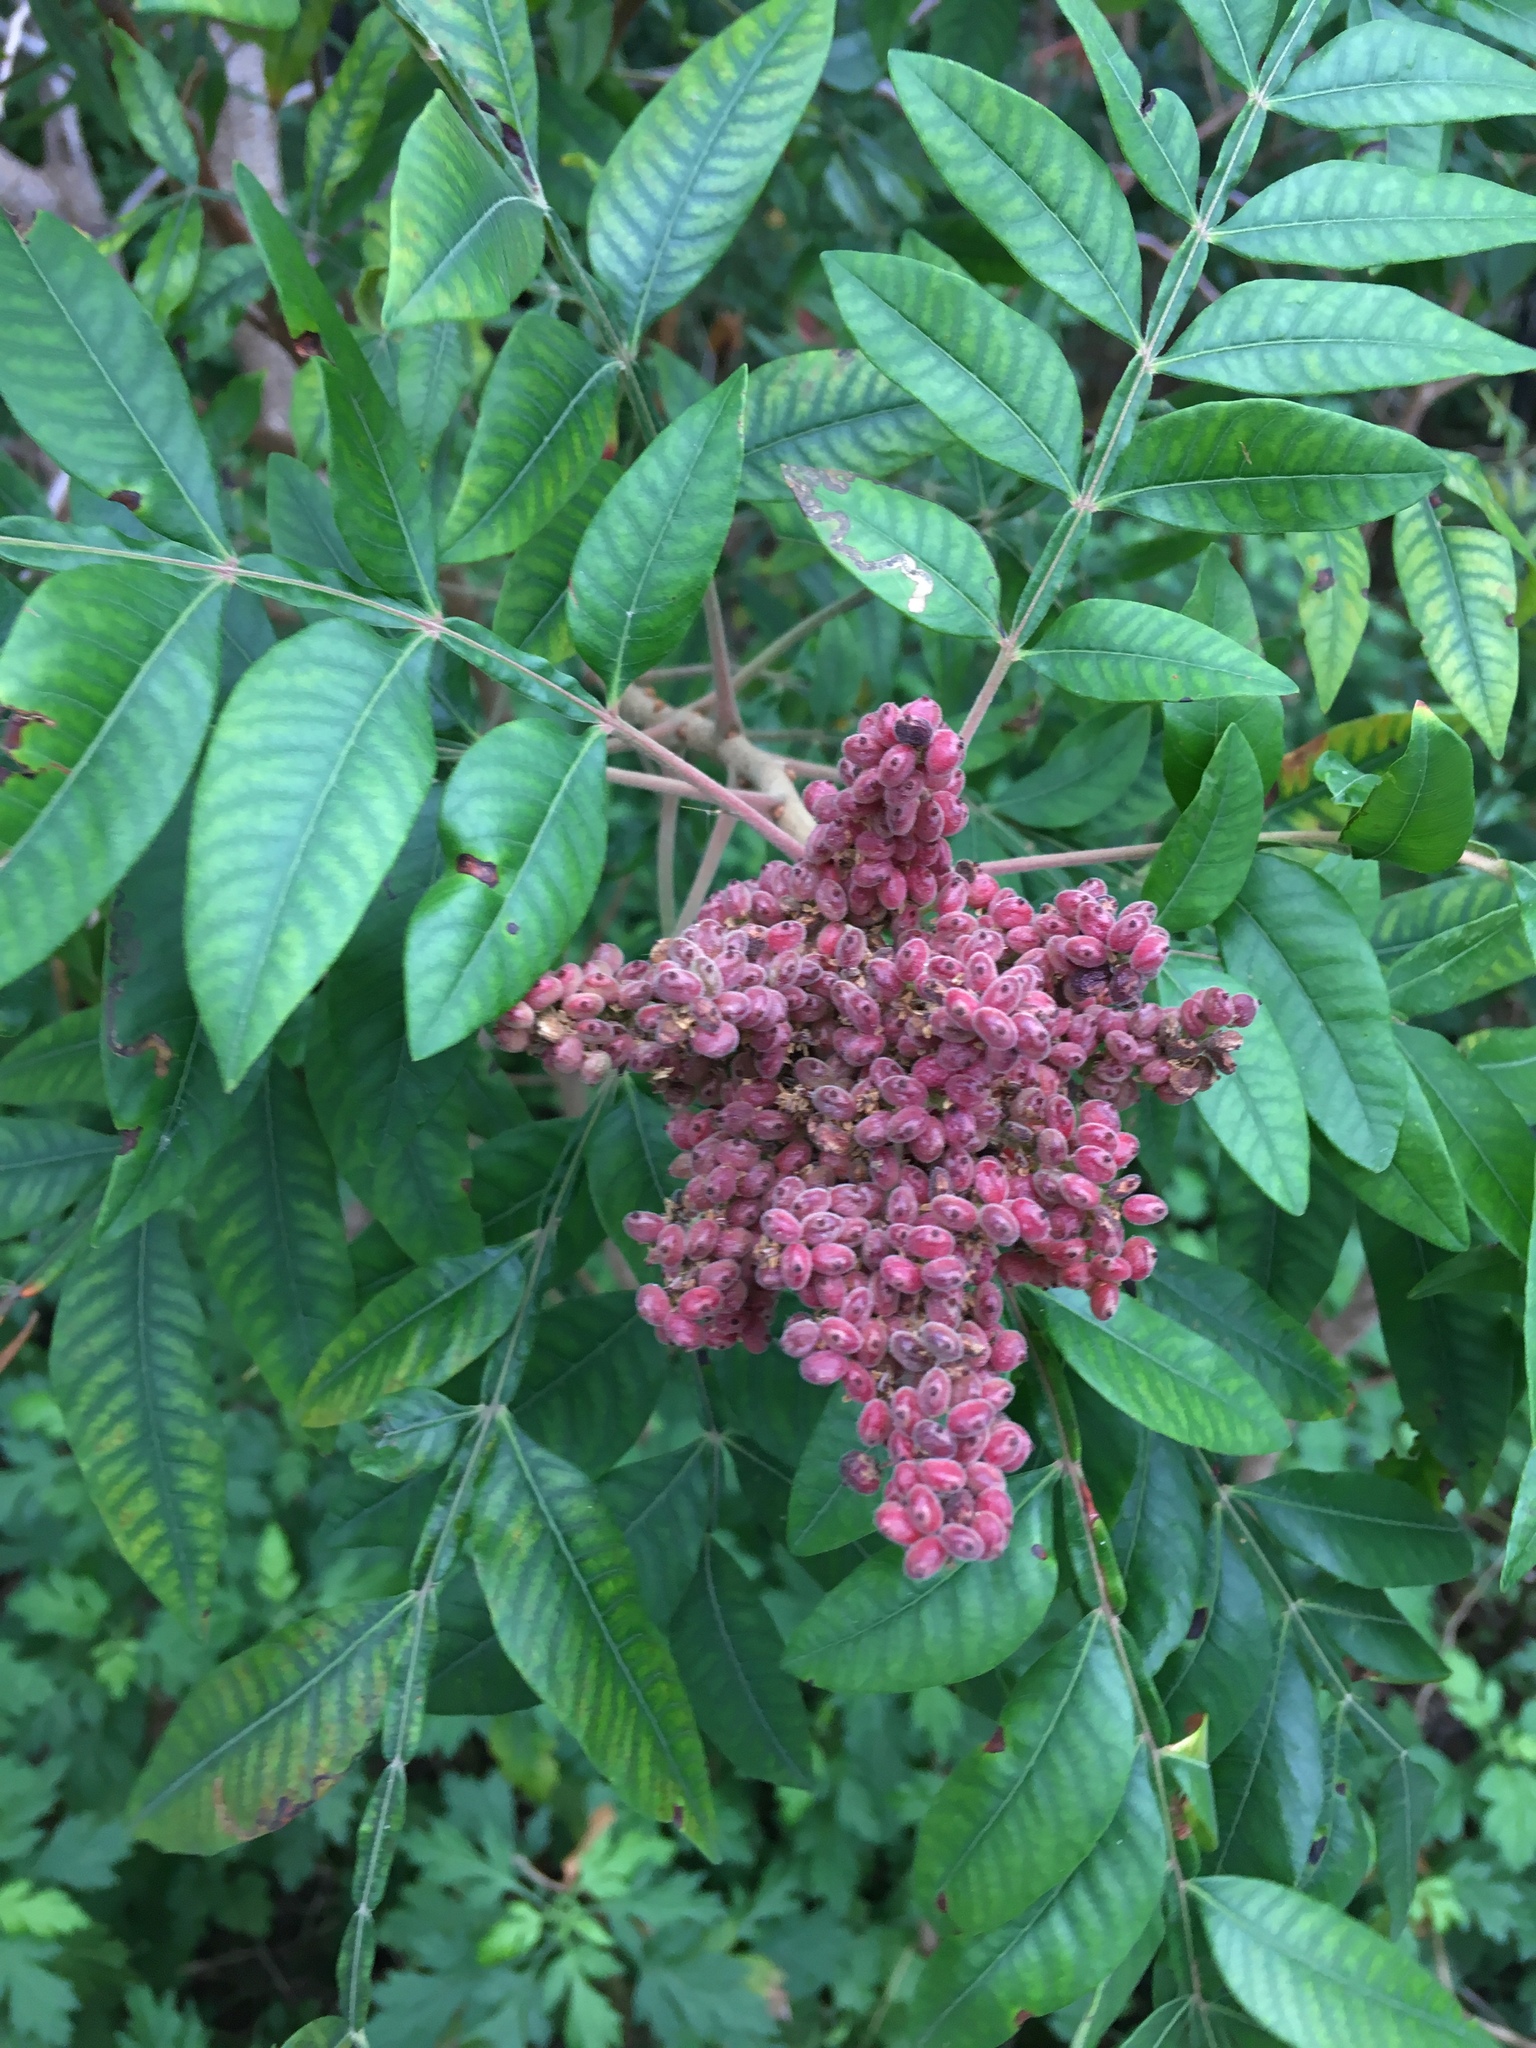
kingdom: Plantae
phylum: Tracheophyta
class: Magnoliopsida
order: Sapindales
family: Anacardiaceae
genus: Rhus
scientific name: Rhus copallina
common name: Shining sumac
